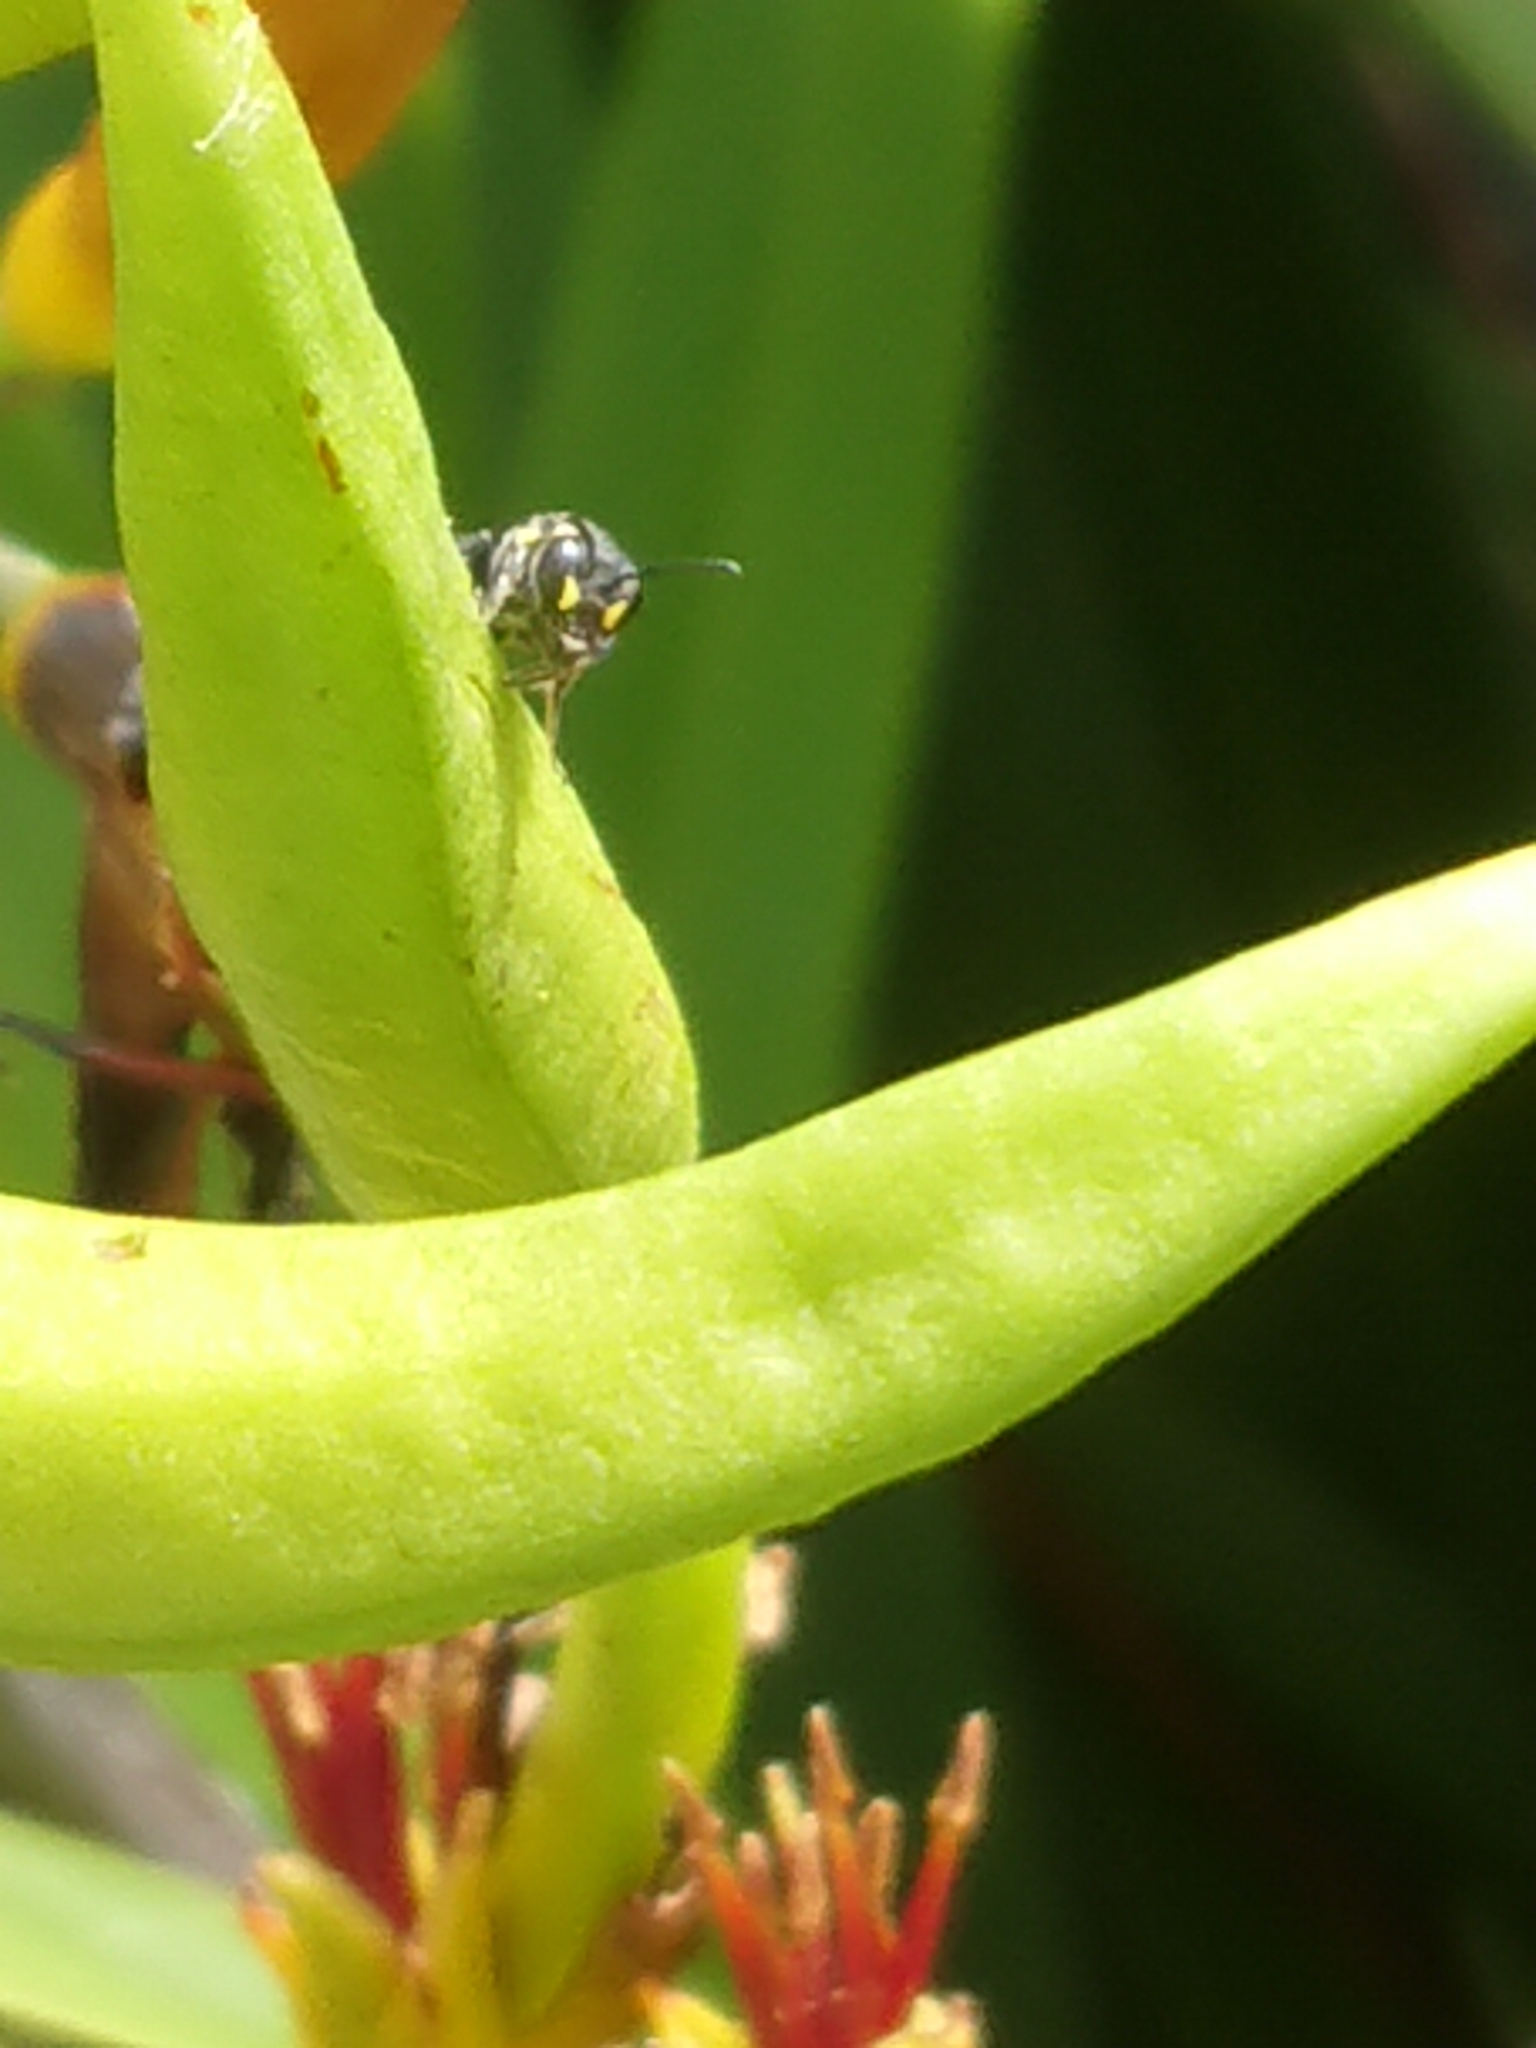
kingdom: Animalia
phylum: Arthropoda
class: Insecta
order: Hymenoptera
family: Colletidae
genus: Hylaeus
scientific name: Hylaeus relegatus
